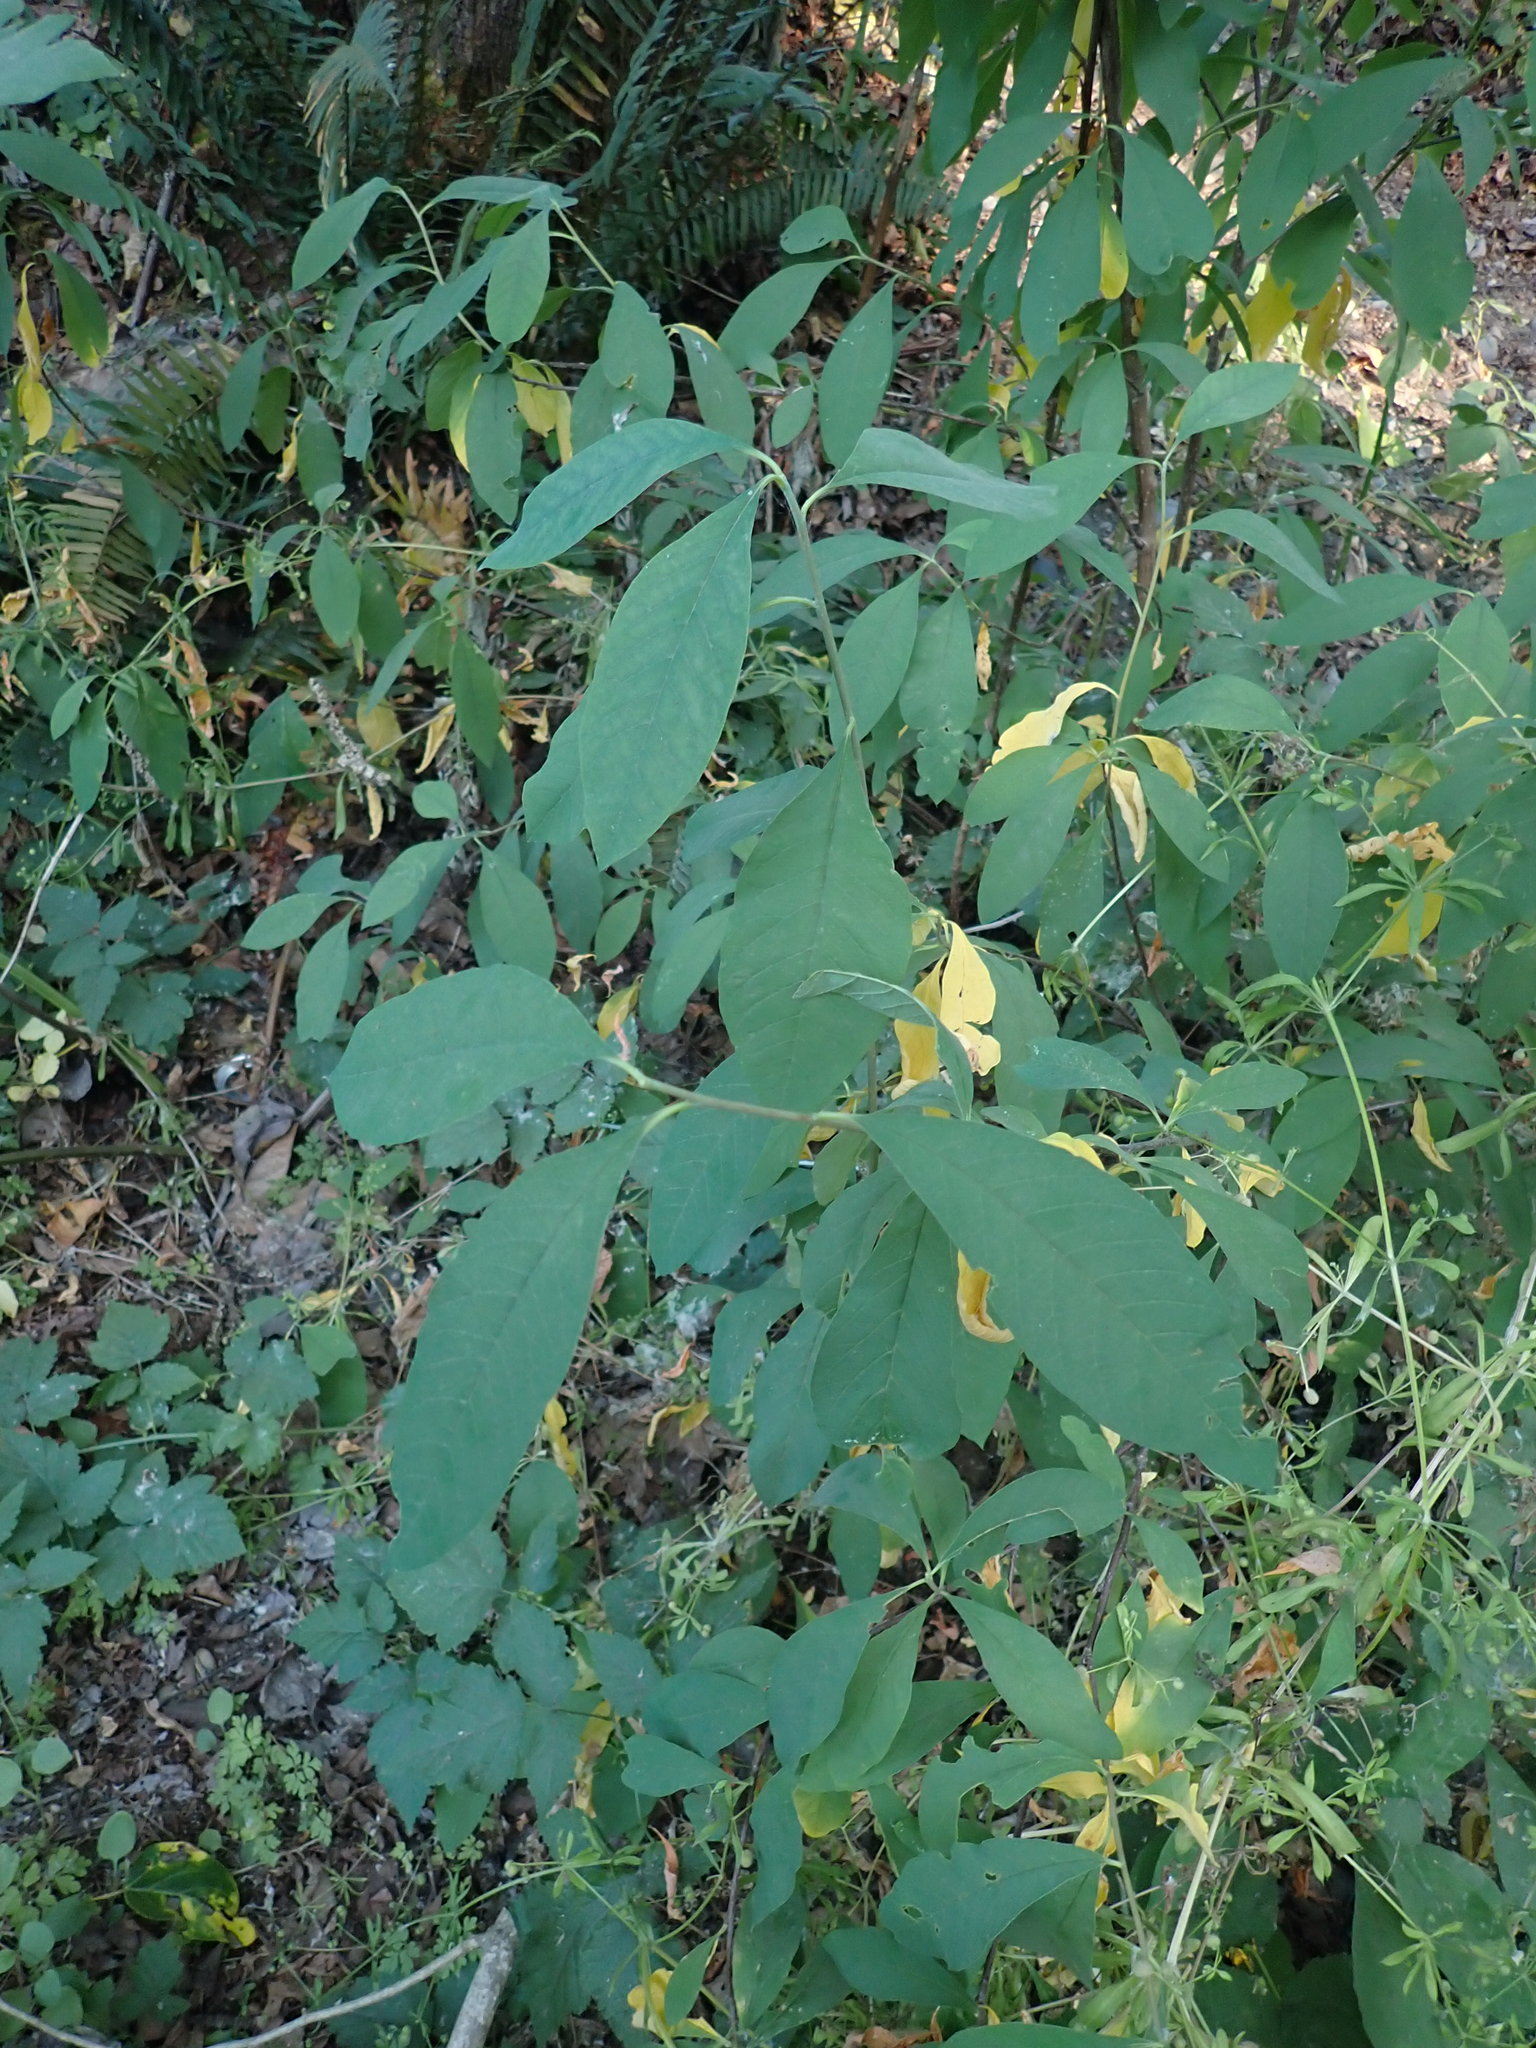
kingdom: Plantae
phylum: Tracheophyta
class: Magnoliopsida
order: Rosales
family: Rosaceae
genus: Oemleria
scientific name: Oemleria cerasiformis
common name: Osoberry
